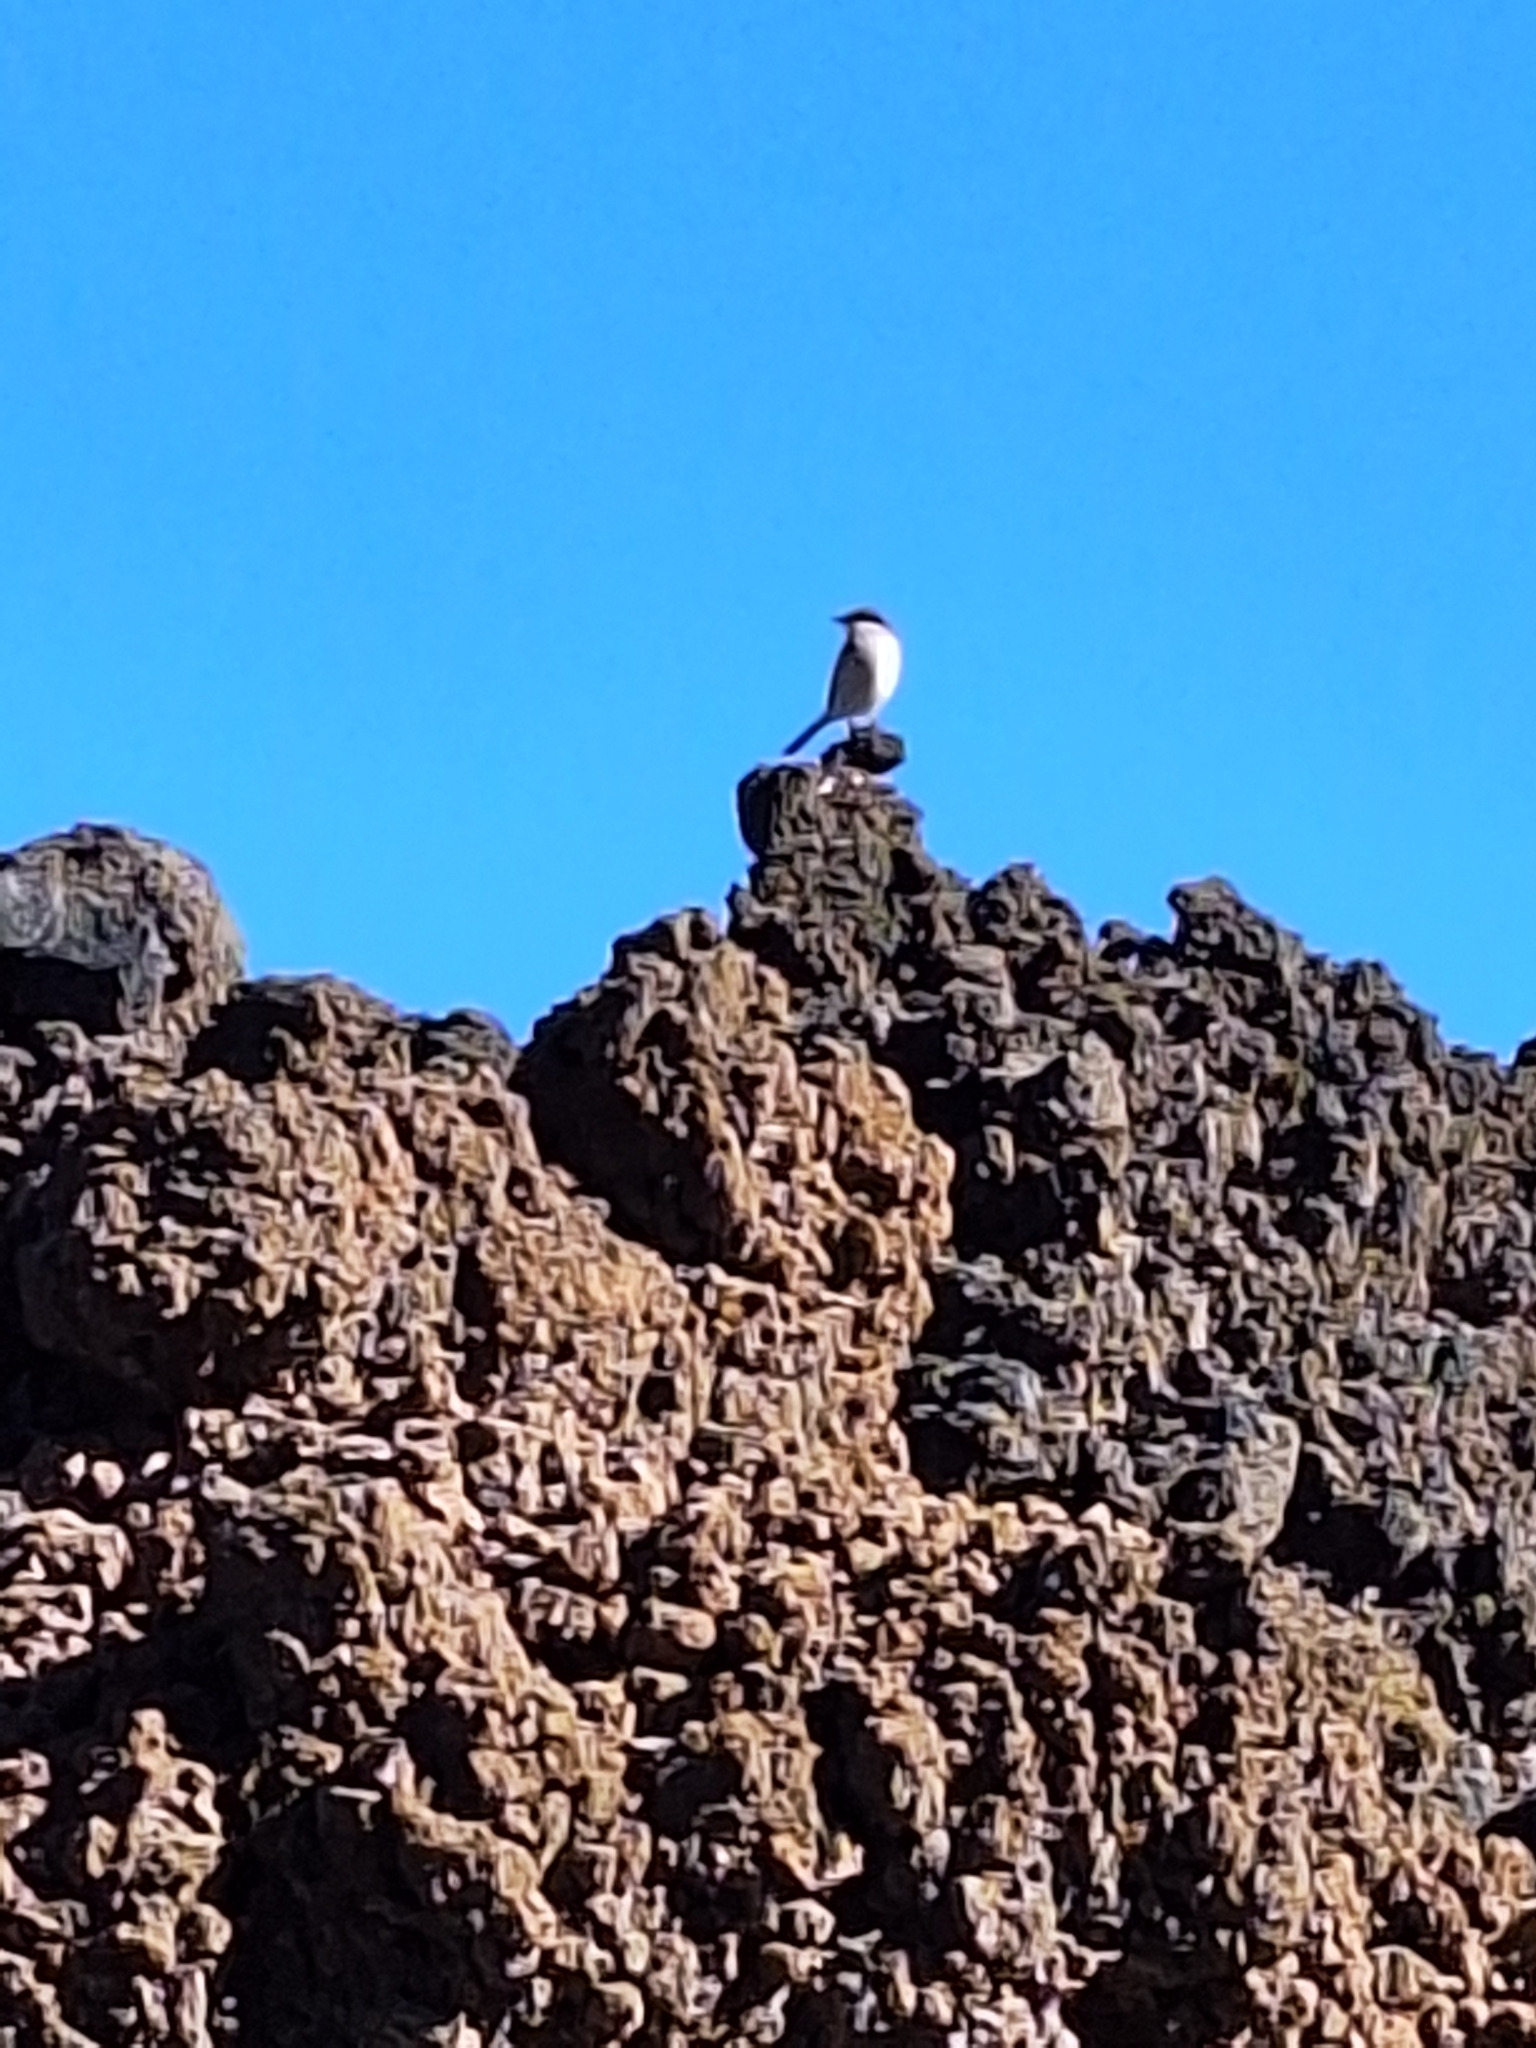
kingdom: Animalia
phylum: Chordata
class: Aves
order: Passeriformes
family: Laniidae
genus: Lanius
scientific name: Lanius excubitor
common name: Great grey shrike
